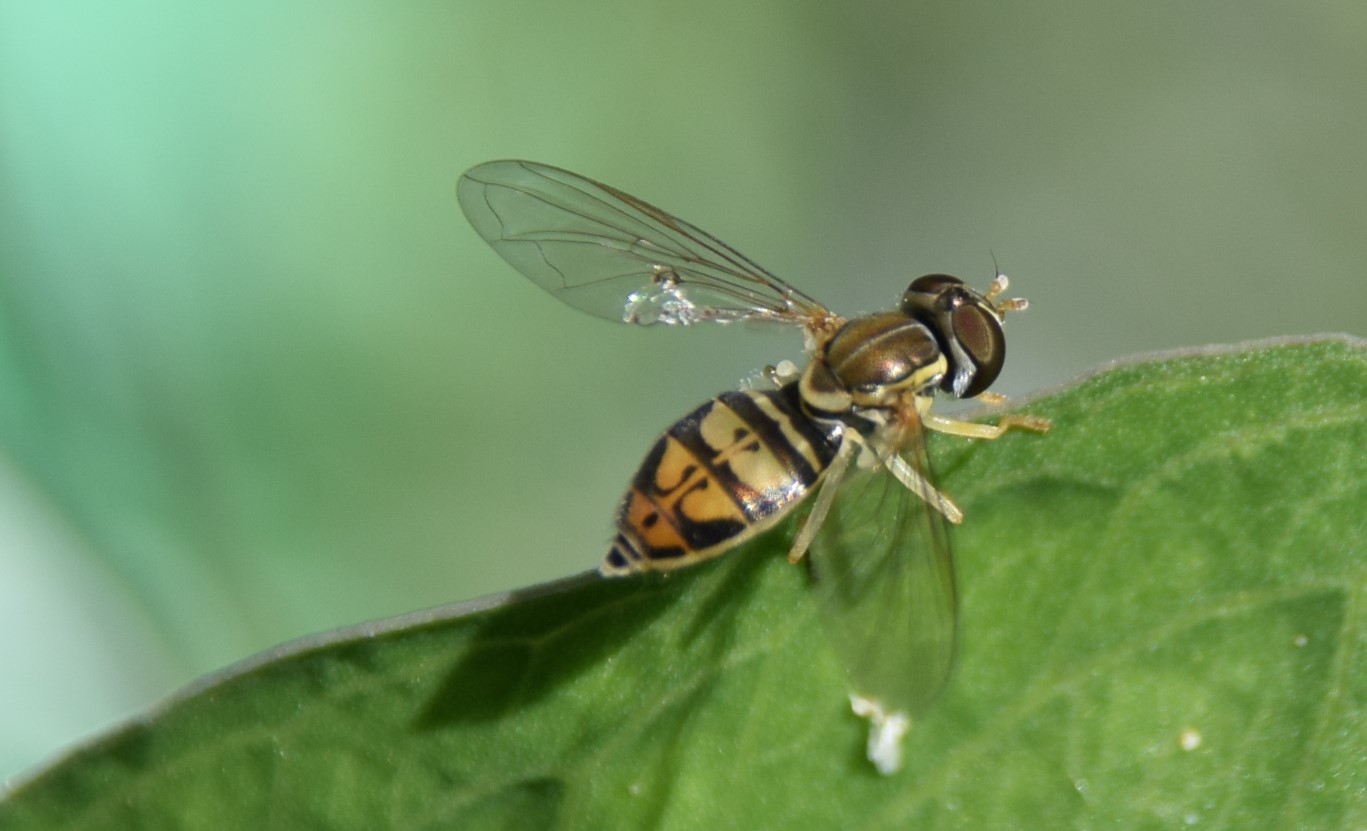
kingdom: Animalia
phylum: Arthropoda
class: Insecta
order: Diptera
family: Syrphidae
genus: Toxomerus
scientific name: Toxomerus marginatus
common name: Syrphid fly
